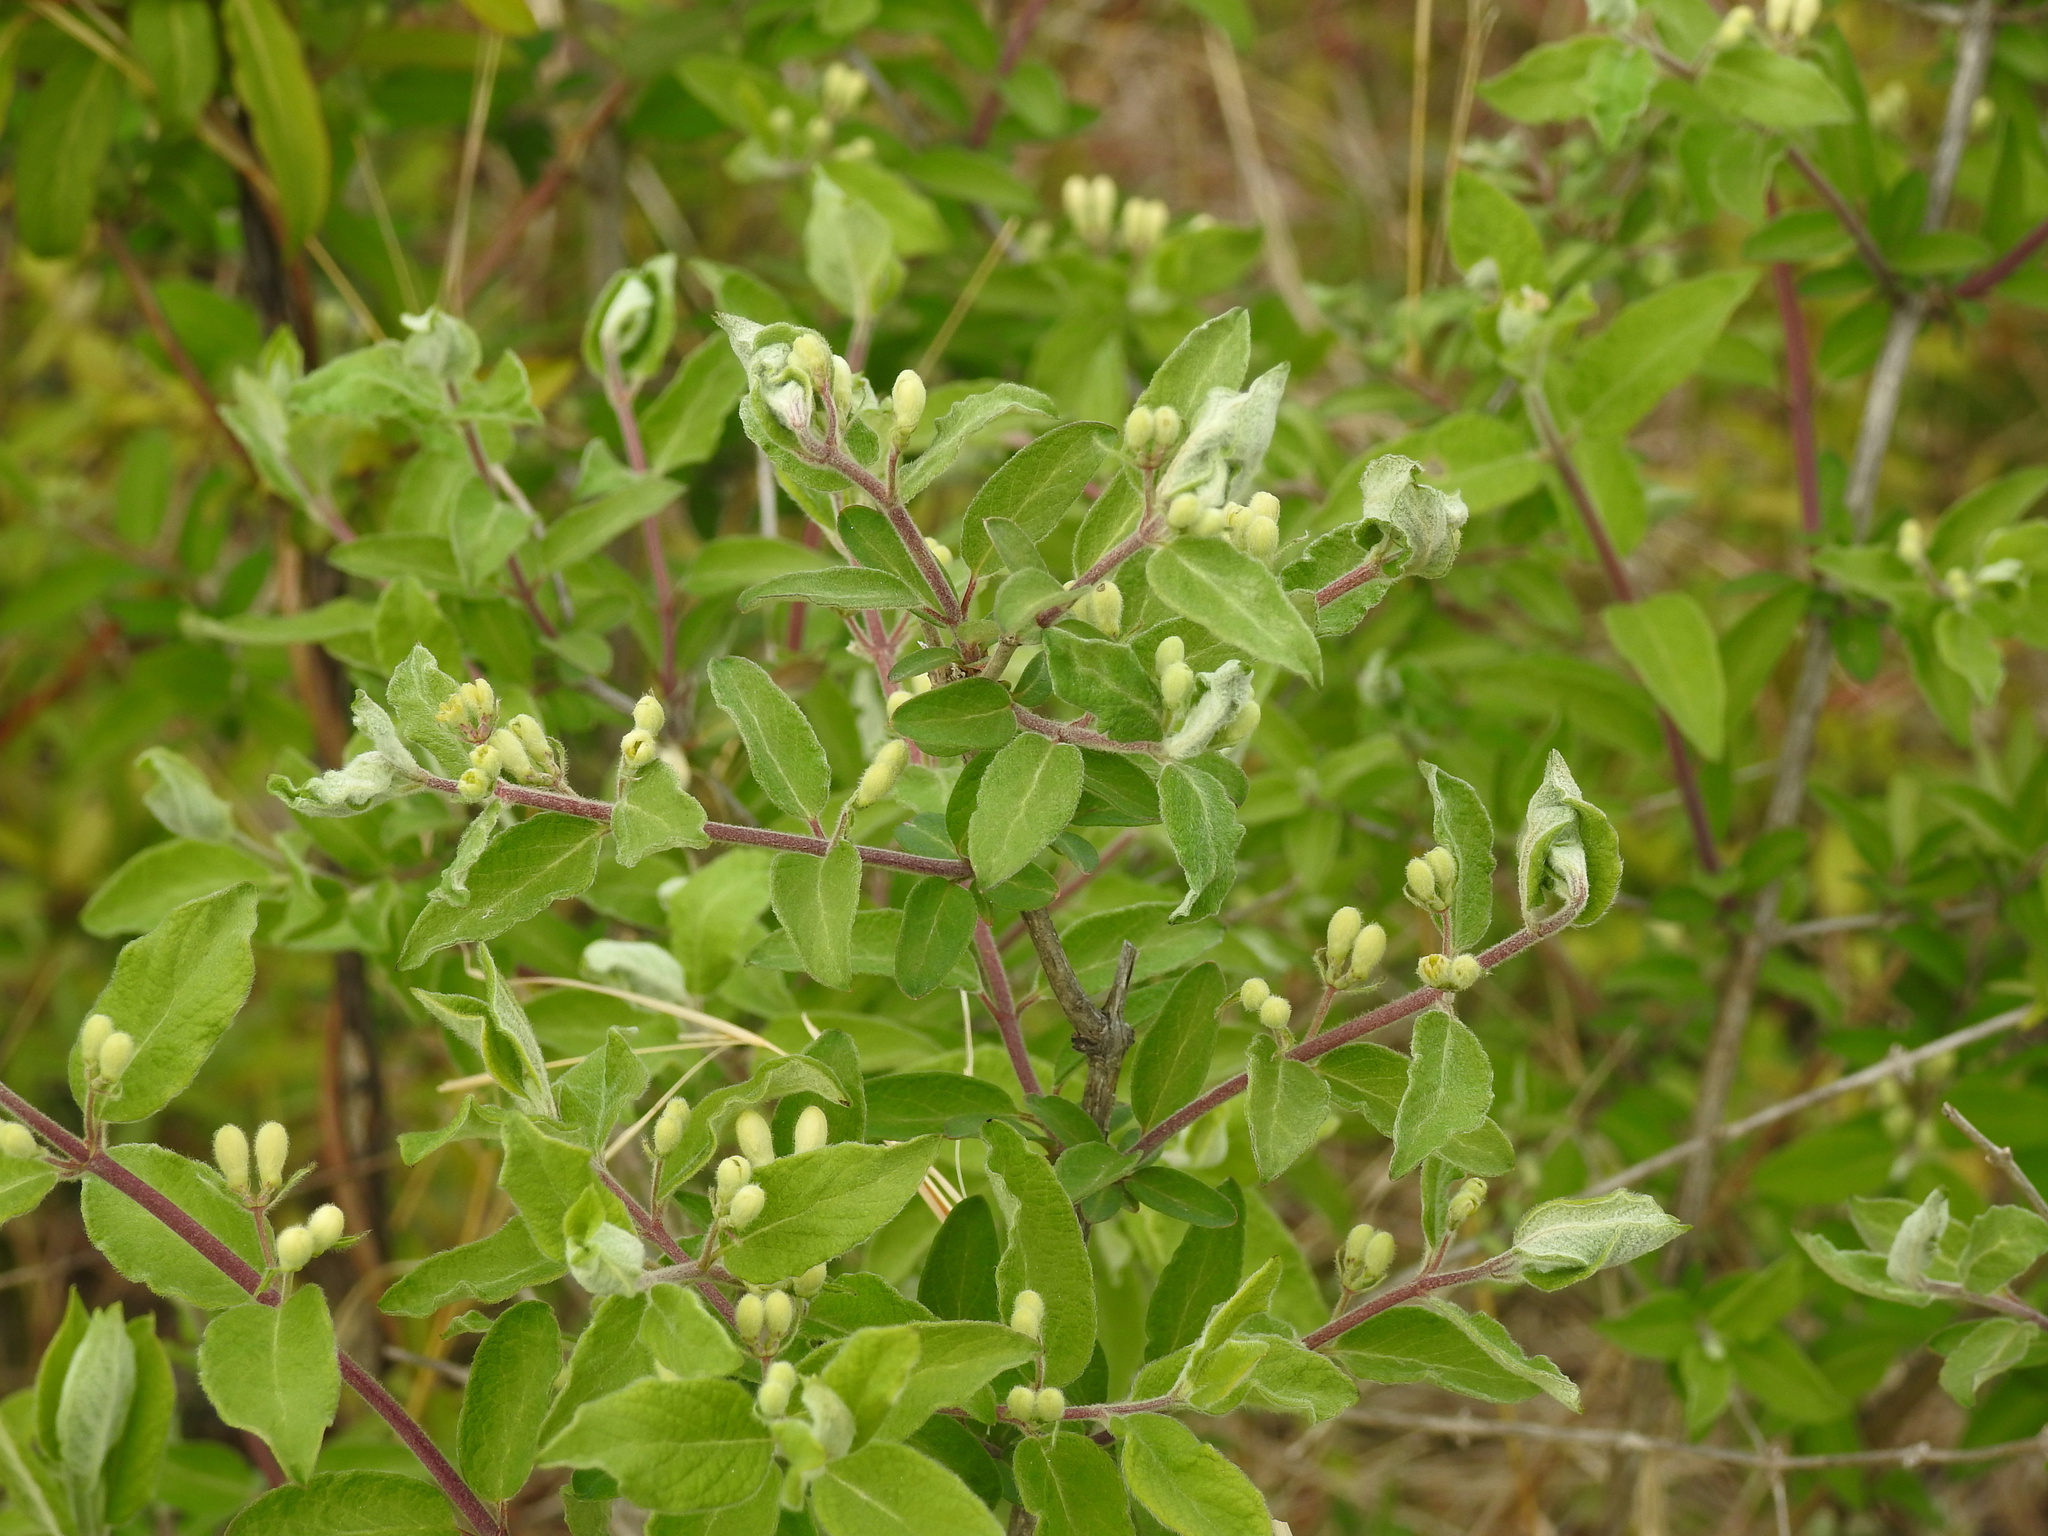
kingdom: Plantae
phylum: Tracheophyta
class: Magnoliopsida
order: Dipsacales
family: Caprifoliaceae
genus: Lonicera
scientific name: Lonicera morrowii
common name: Morrow's honeysuckle
